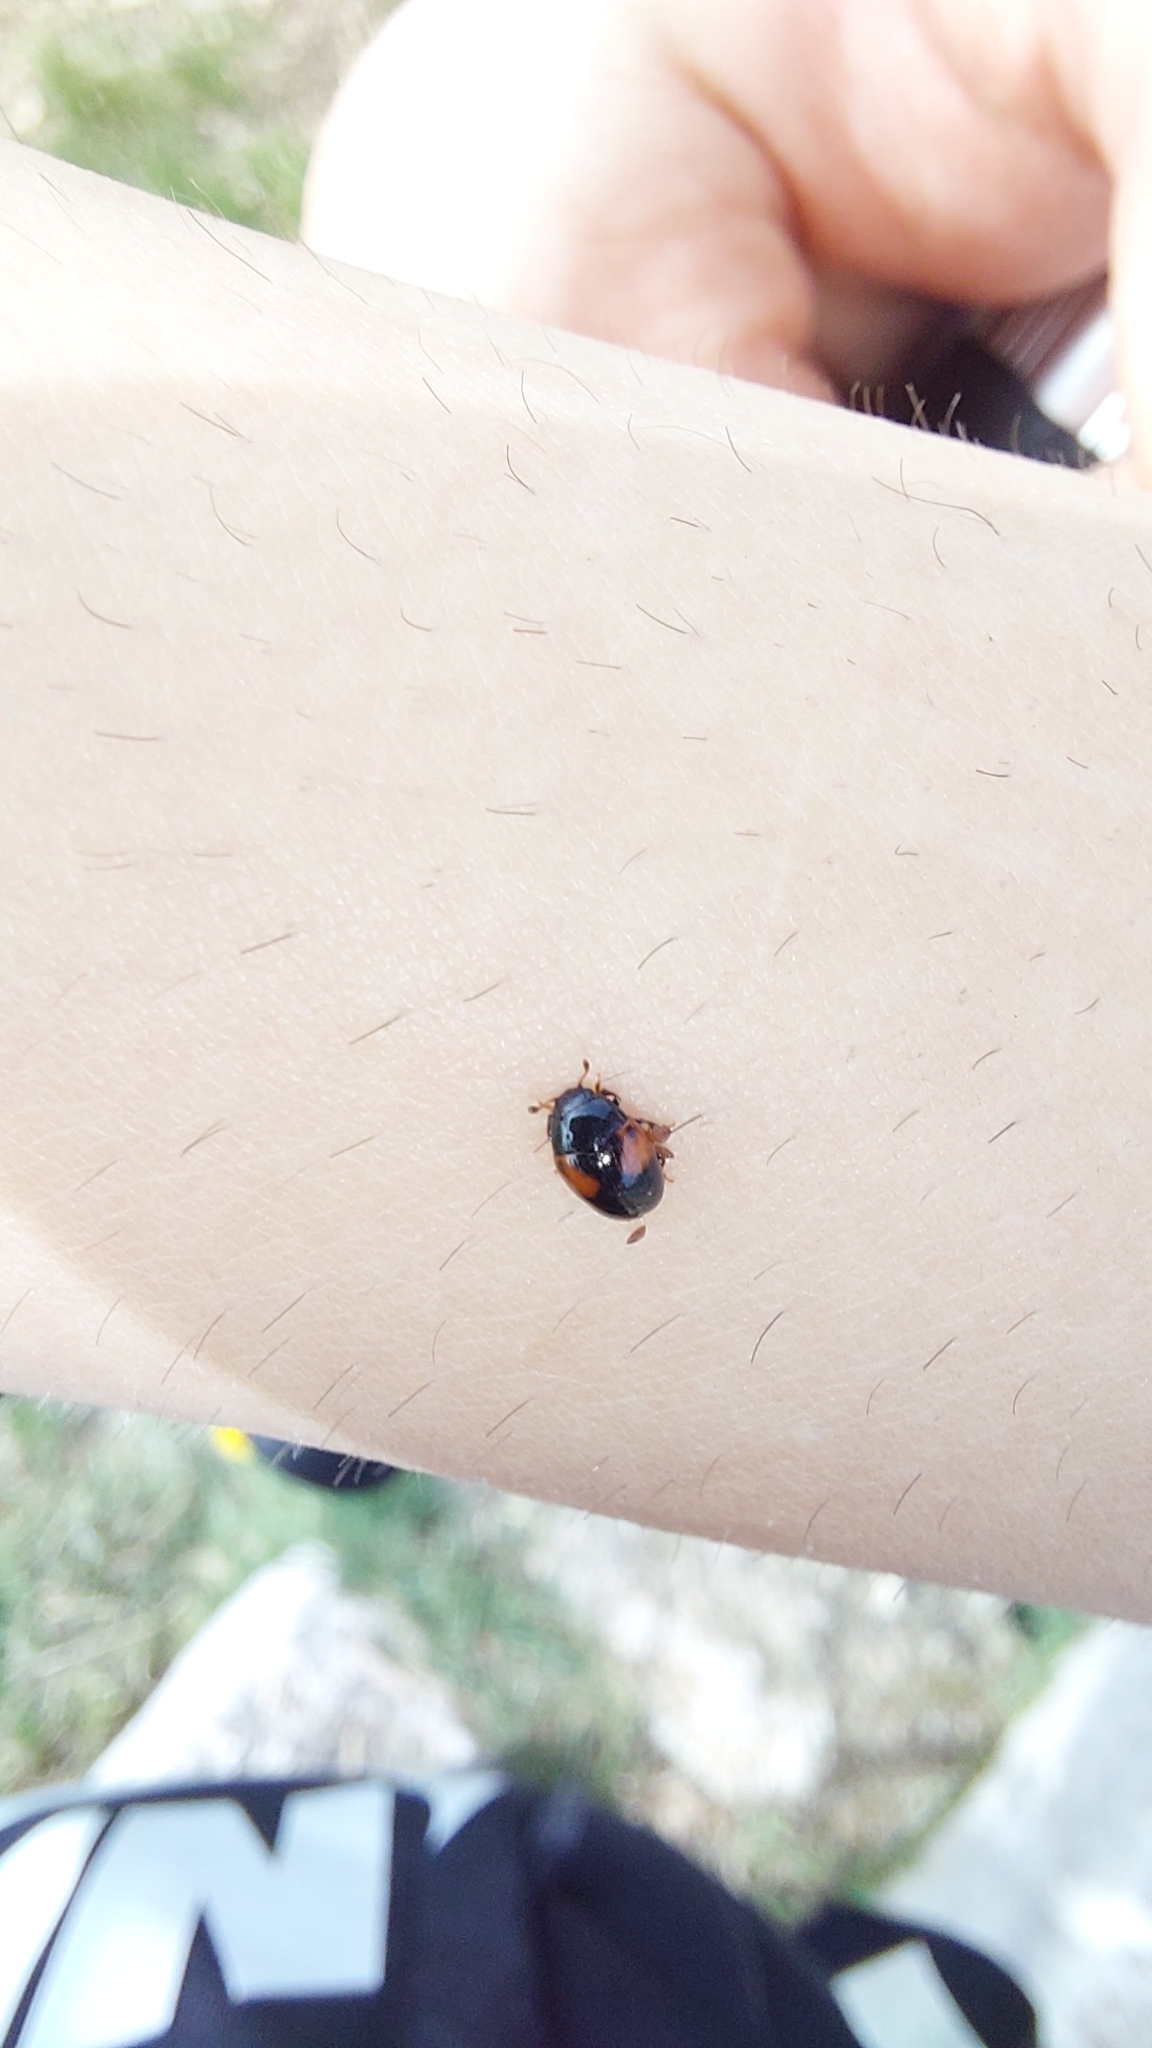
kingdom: Animalia
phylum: Arthropoda
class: Insecta
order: Coleoptera
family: Erotylidae
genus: Tritoma
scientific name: Tritoma bipustulata
